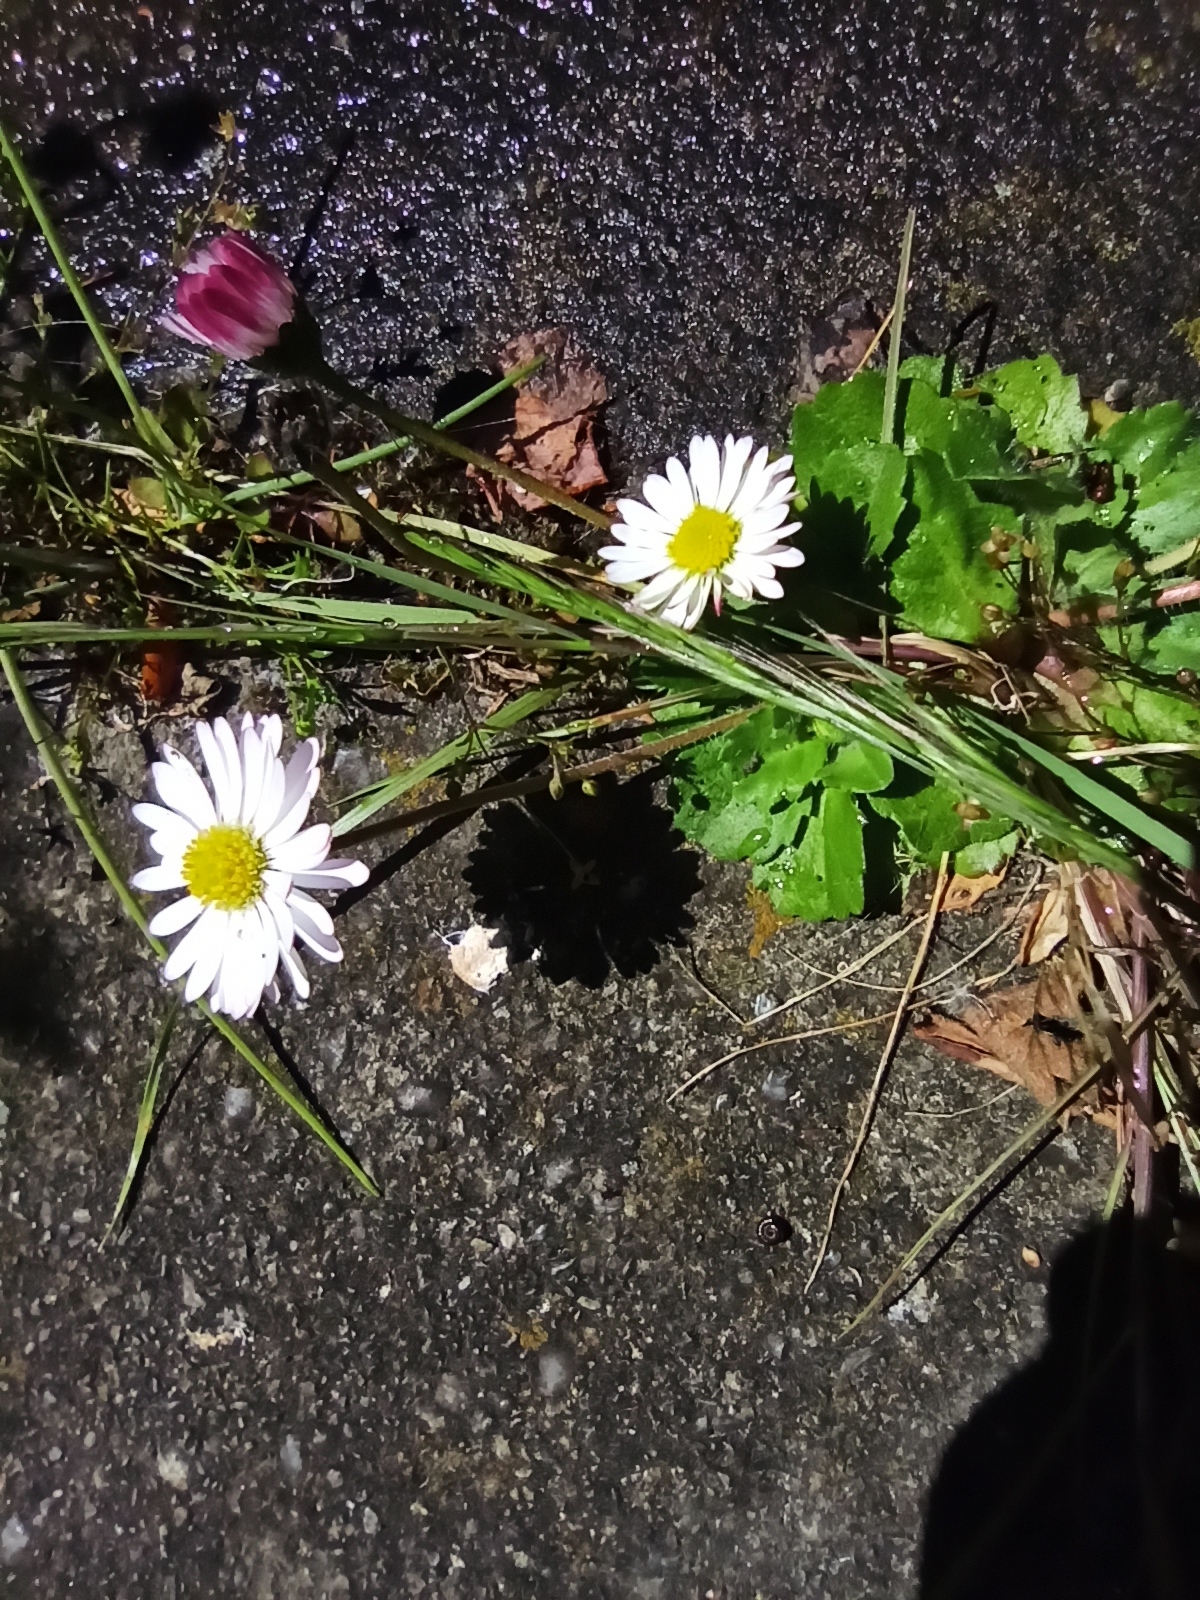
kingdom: Plantae
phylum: Tracheophyta
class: Magnoliopsida
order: Asterales
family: Asteraceae
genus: Bellis
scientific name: Bellis perennis
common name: Lawndaisy
